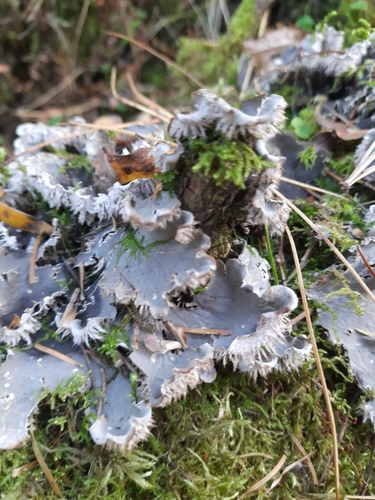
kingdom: Fungi
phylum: Ascomycota
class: Lecanoromycetes
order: Peltigerales
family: Peltigeraceae
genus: Peltigera
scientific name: Peltigera
